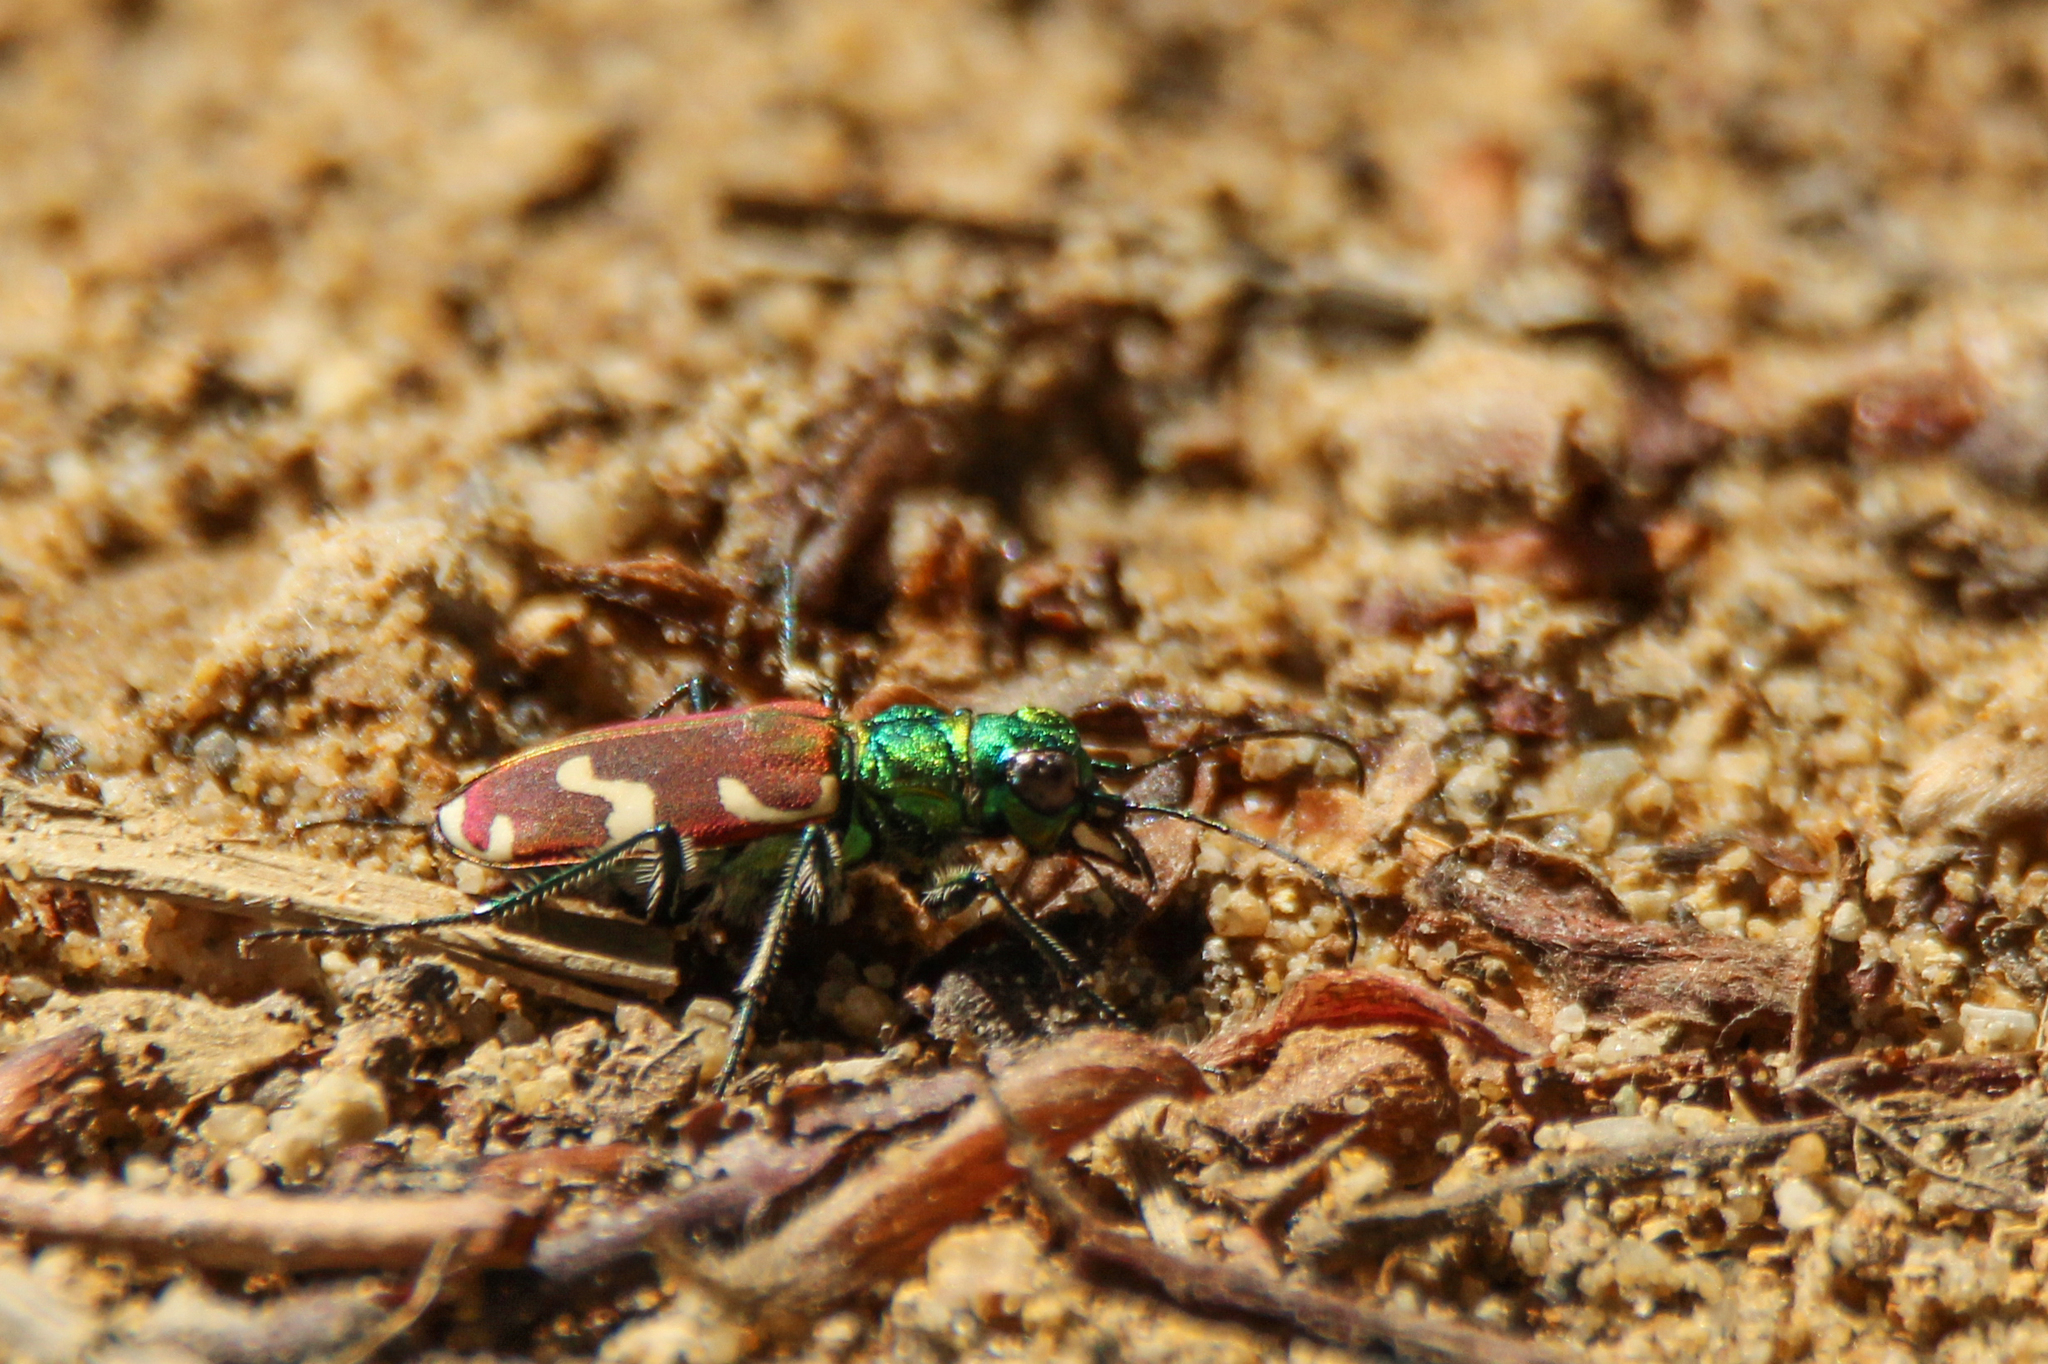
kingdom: Animalia
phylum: Arthropoda
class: Insecta
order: Coleoptera
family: Carabidae
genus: Cicindela
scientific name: Cicindela coerulea
